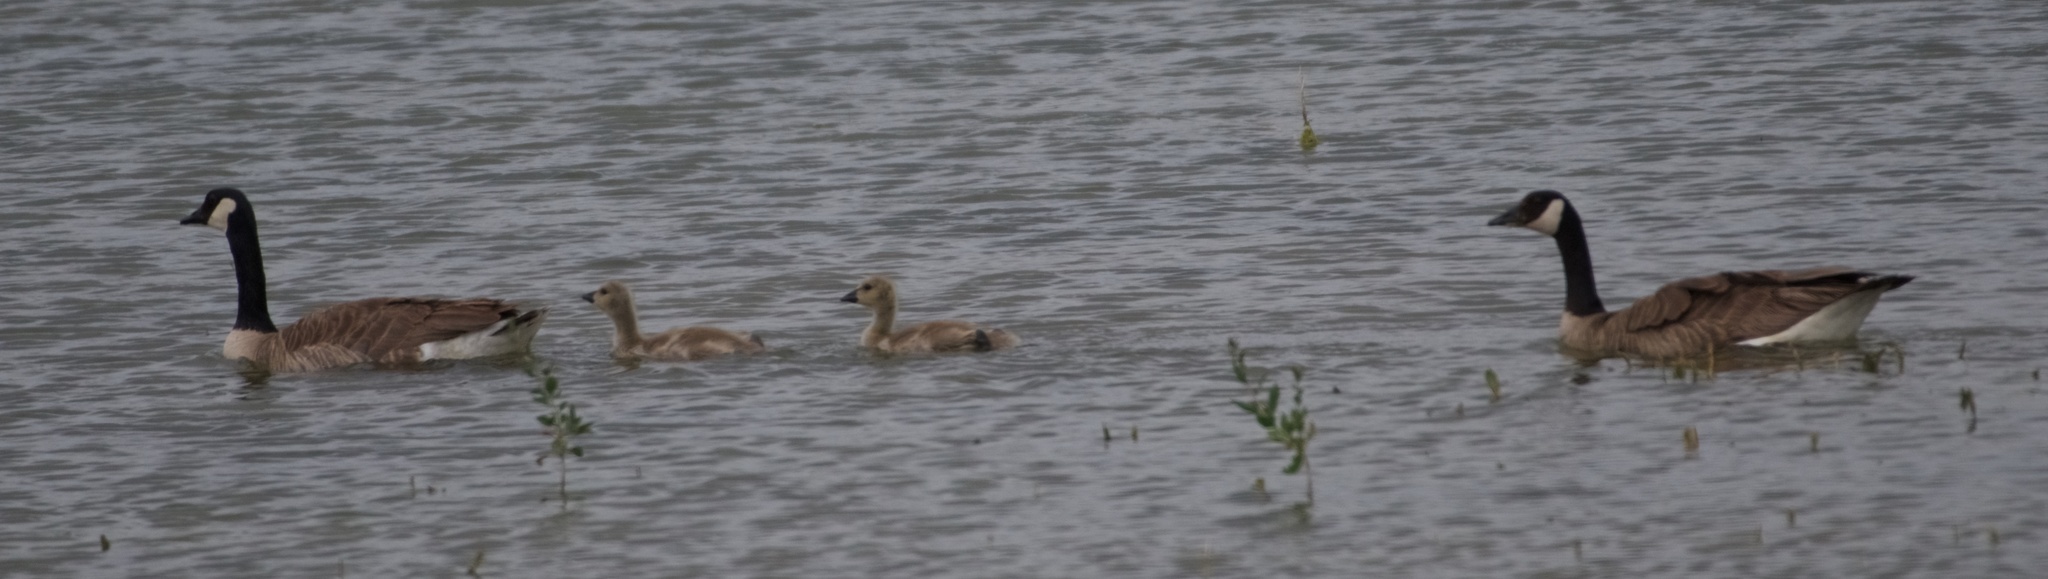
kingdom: Animalia
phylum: Chordata
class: Aves
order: Anseriformes
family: Anatidae
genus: Branta
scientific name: Branta canadensis
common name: Canada goose
